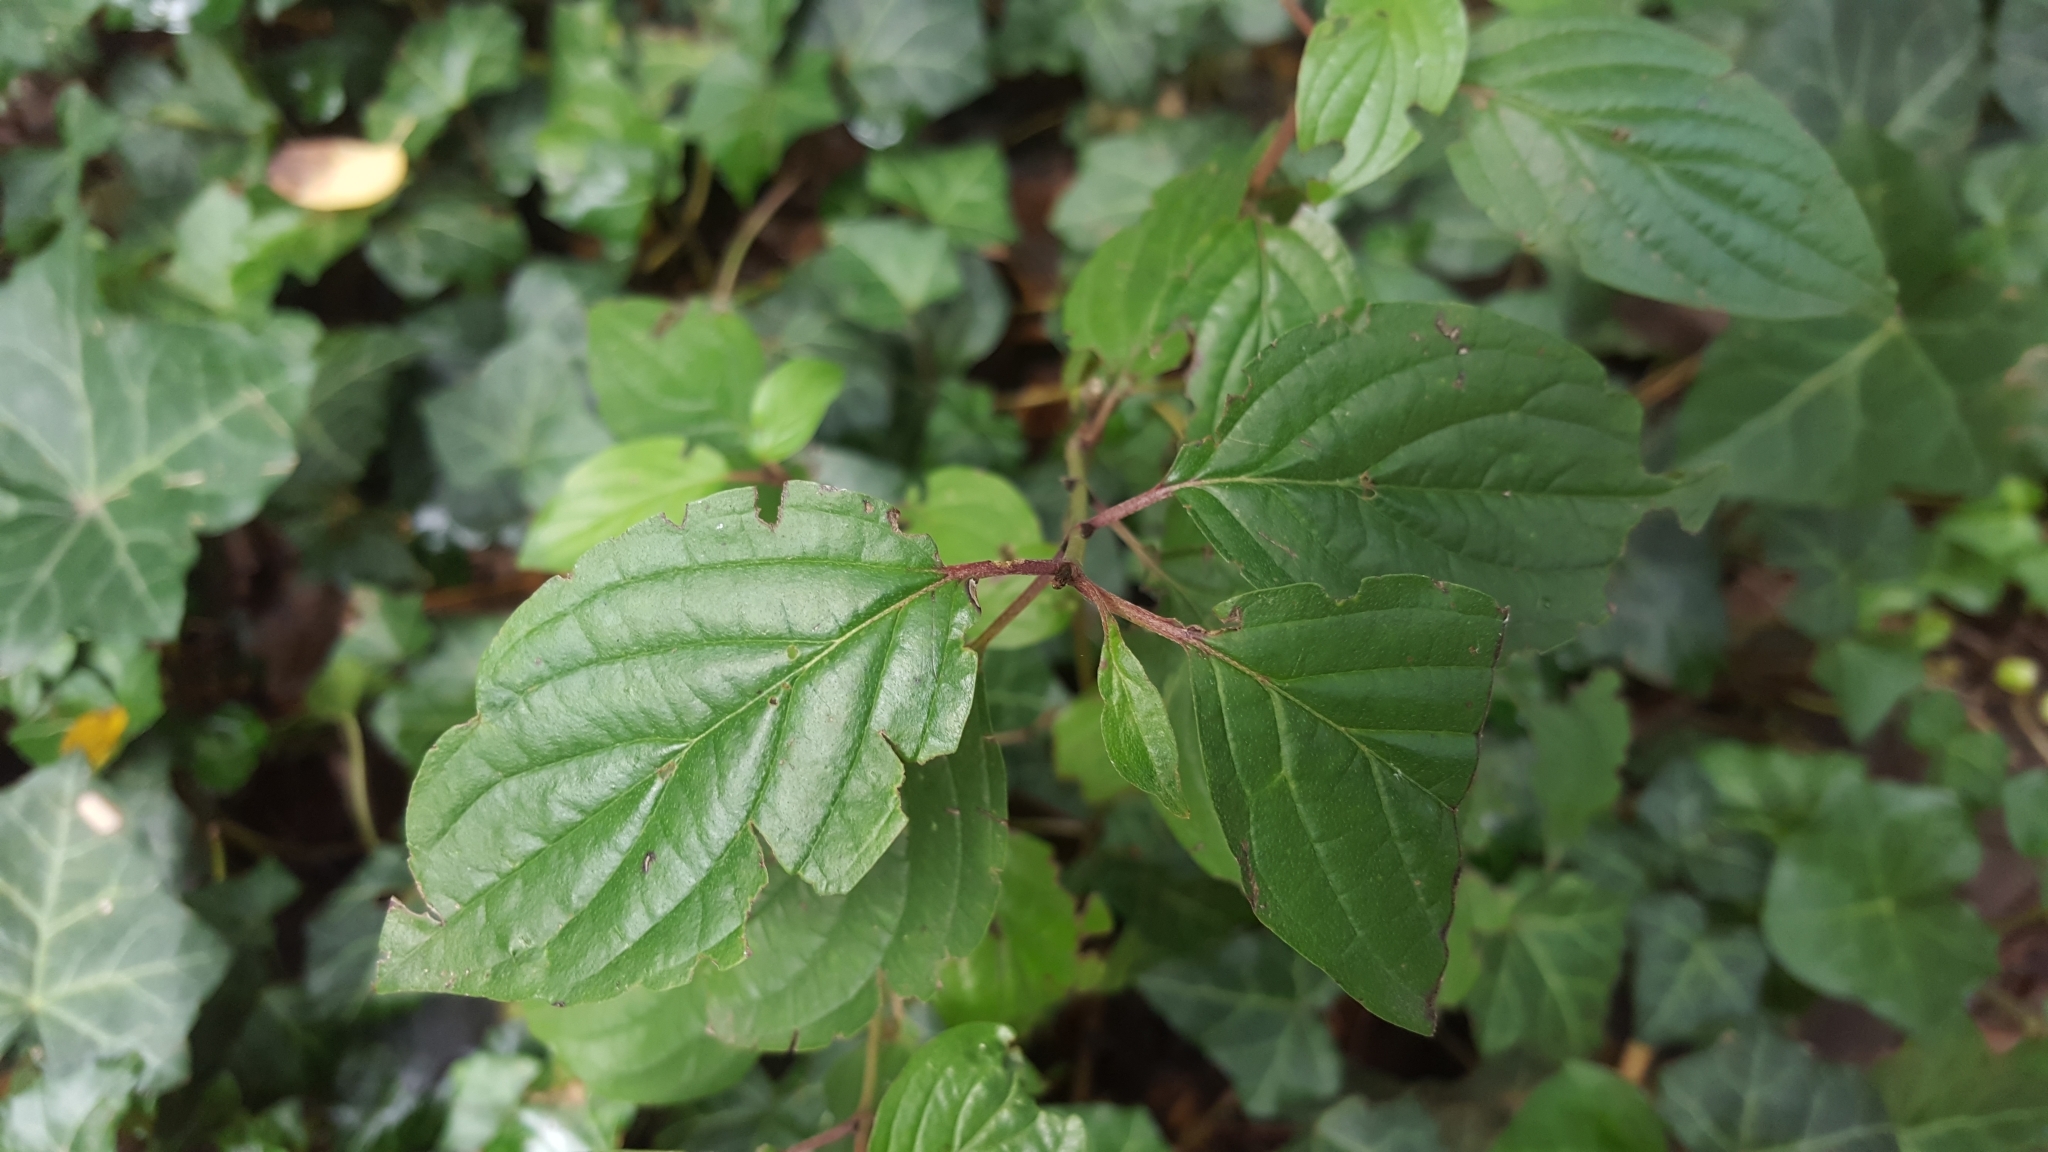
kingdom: Plantae
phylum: Tracheophyta
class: Magnoliopsida
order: Cornales
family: Cornaceae
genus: Cornus
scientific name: Cornus sanguinea
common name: Dogwood
